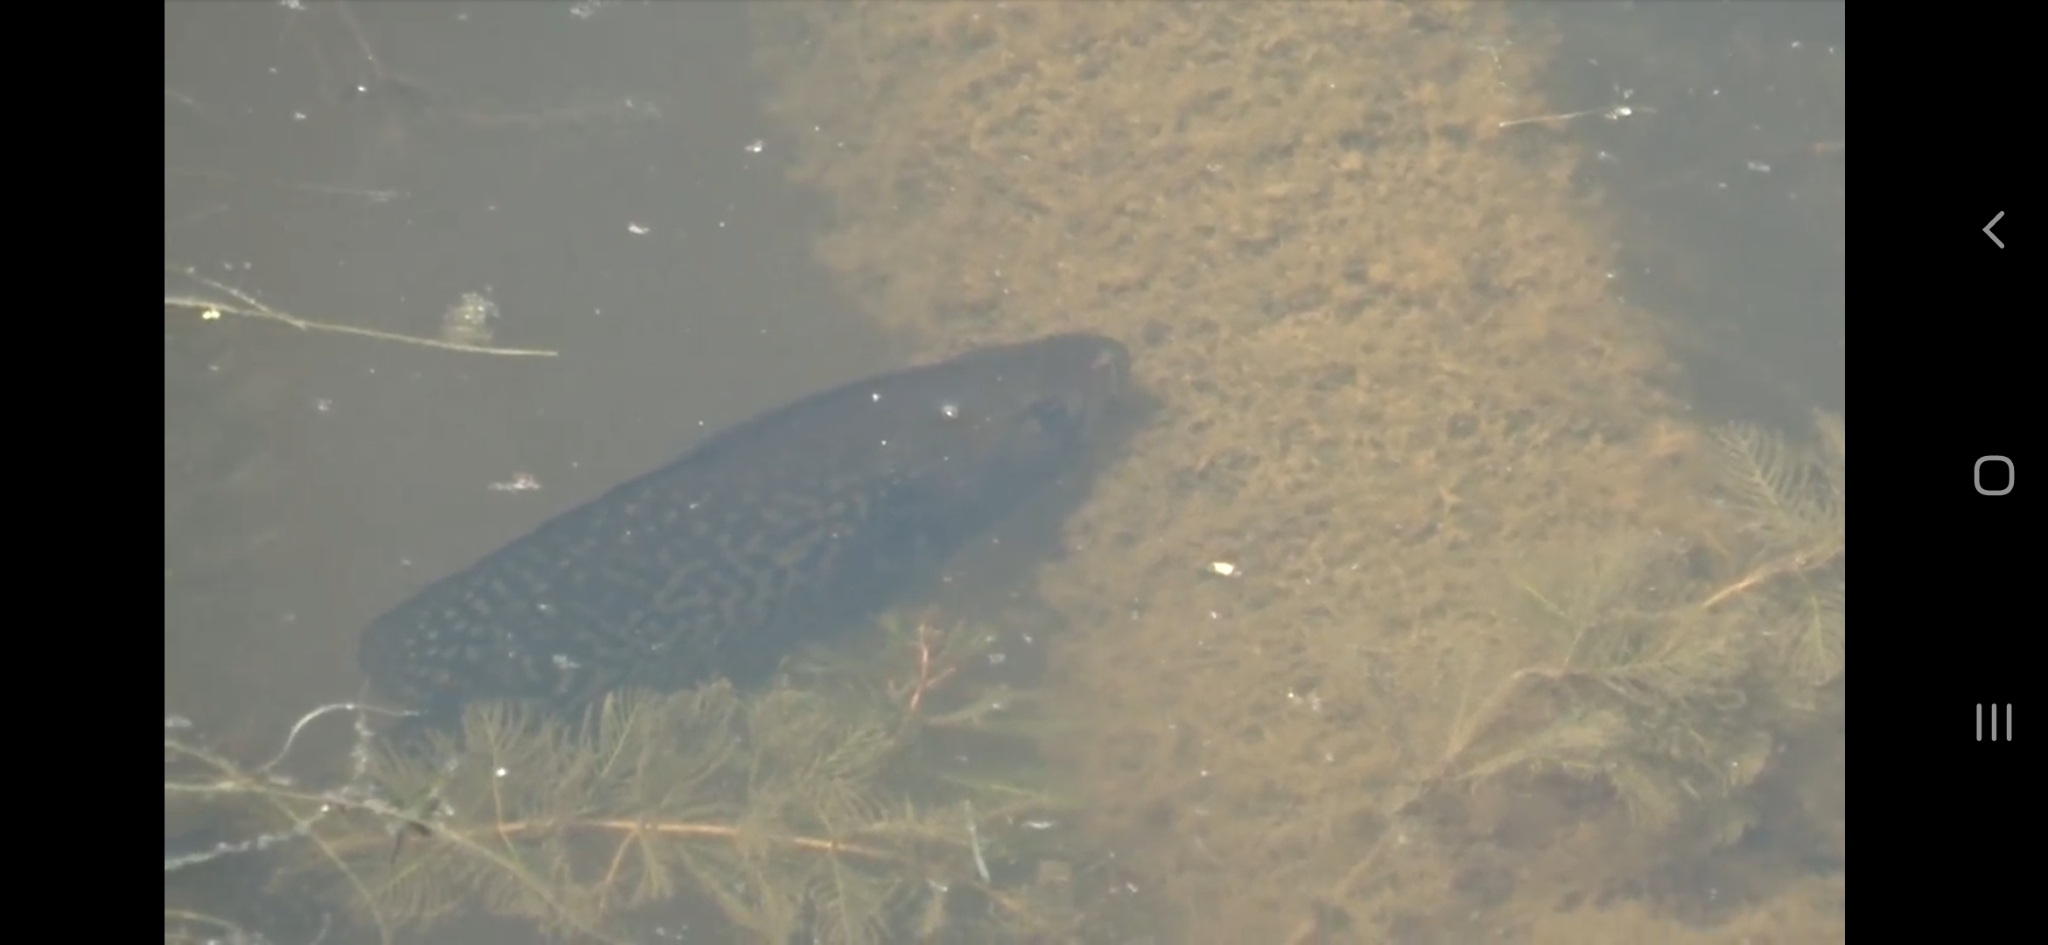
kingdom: Animalia
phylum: Chordata
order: Perciformes
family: Centrarchidae
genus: Pomoxis
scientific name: Pomoxis nigromaculatus
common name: Black crappie
